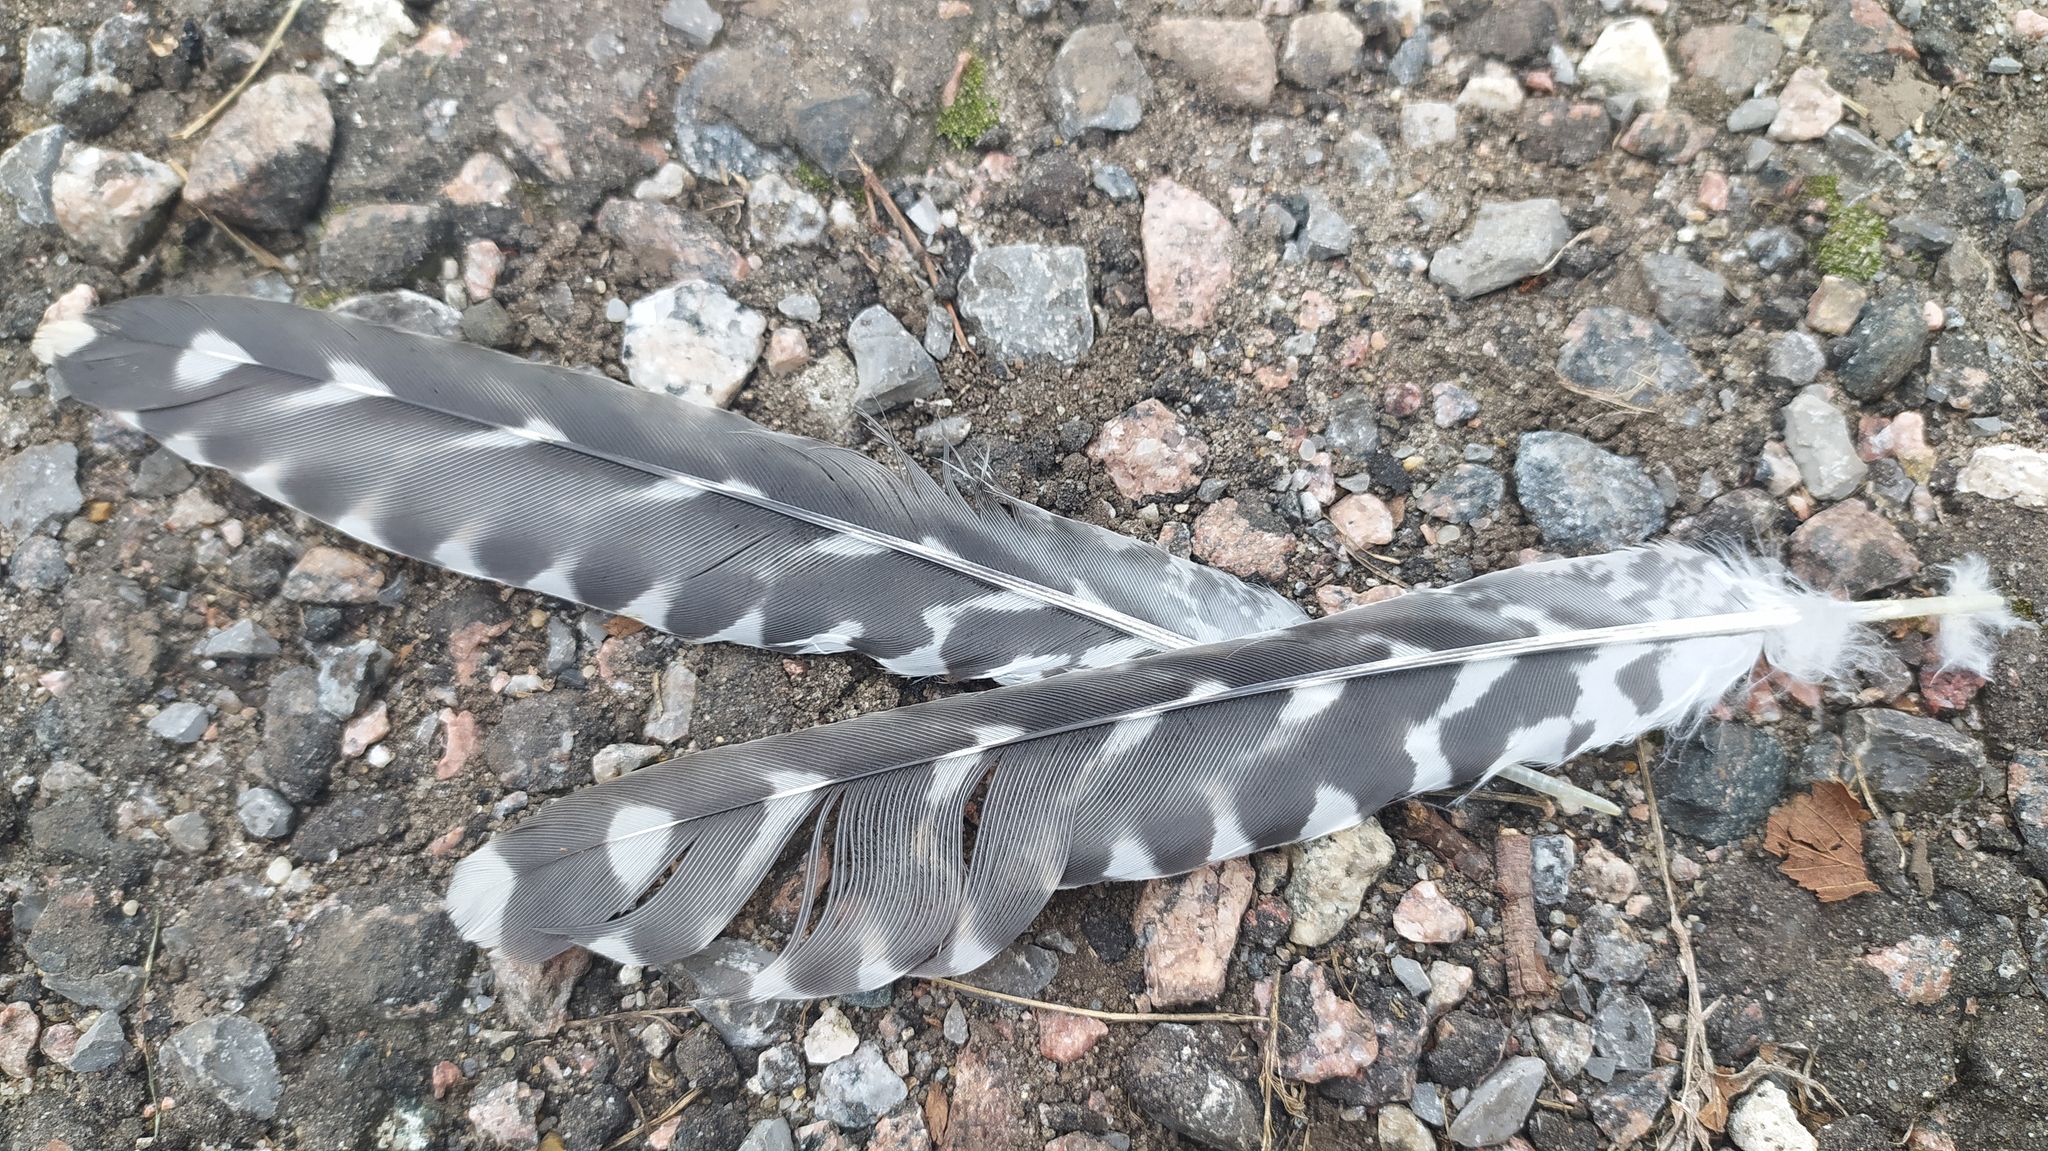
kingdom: Animalia
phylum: Chordata
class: Aves
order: Cuculiformes
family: Cuculidae
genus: Cuculus
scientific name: Cuculus canorus
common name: Common cuckoo
